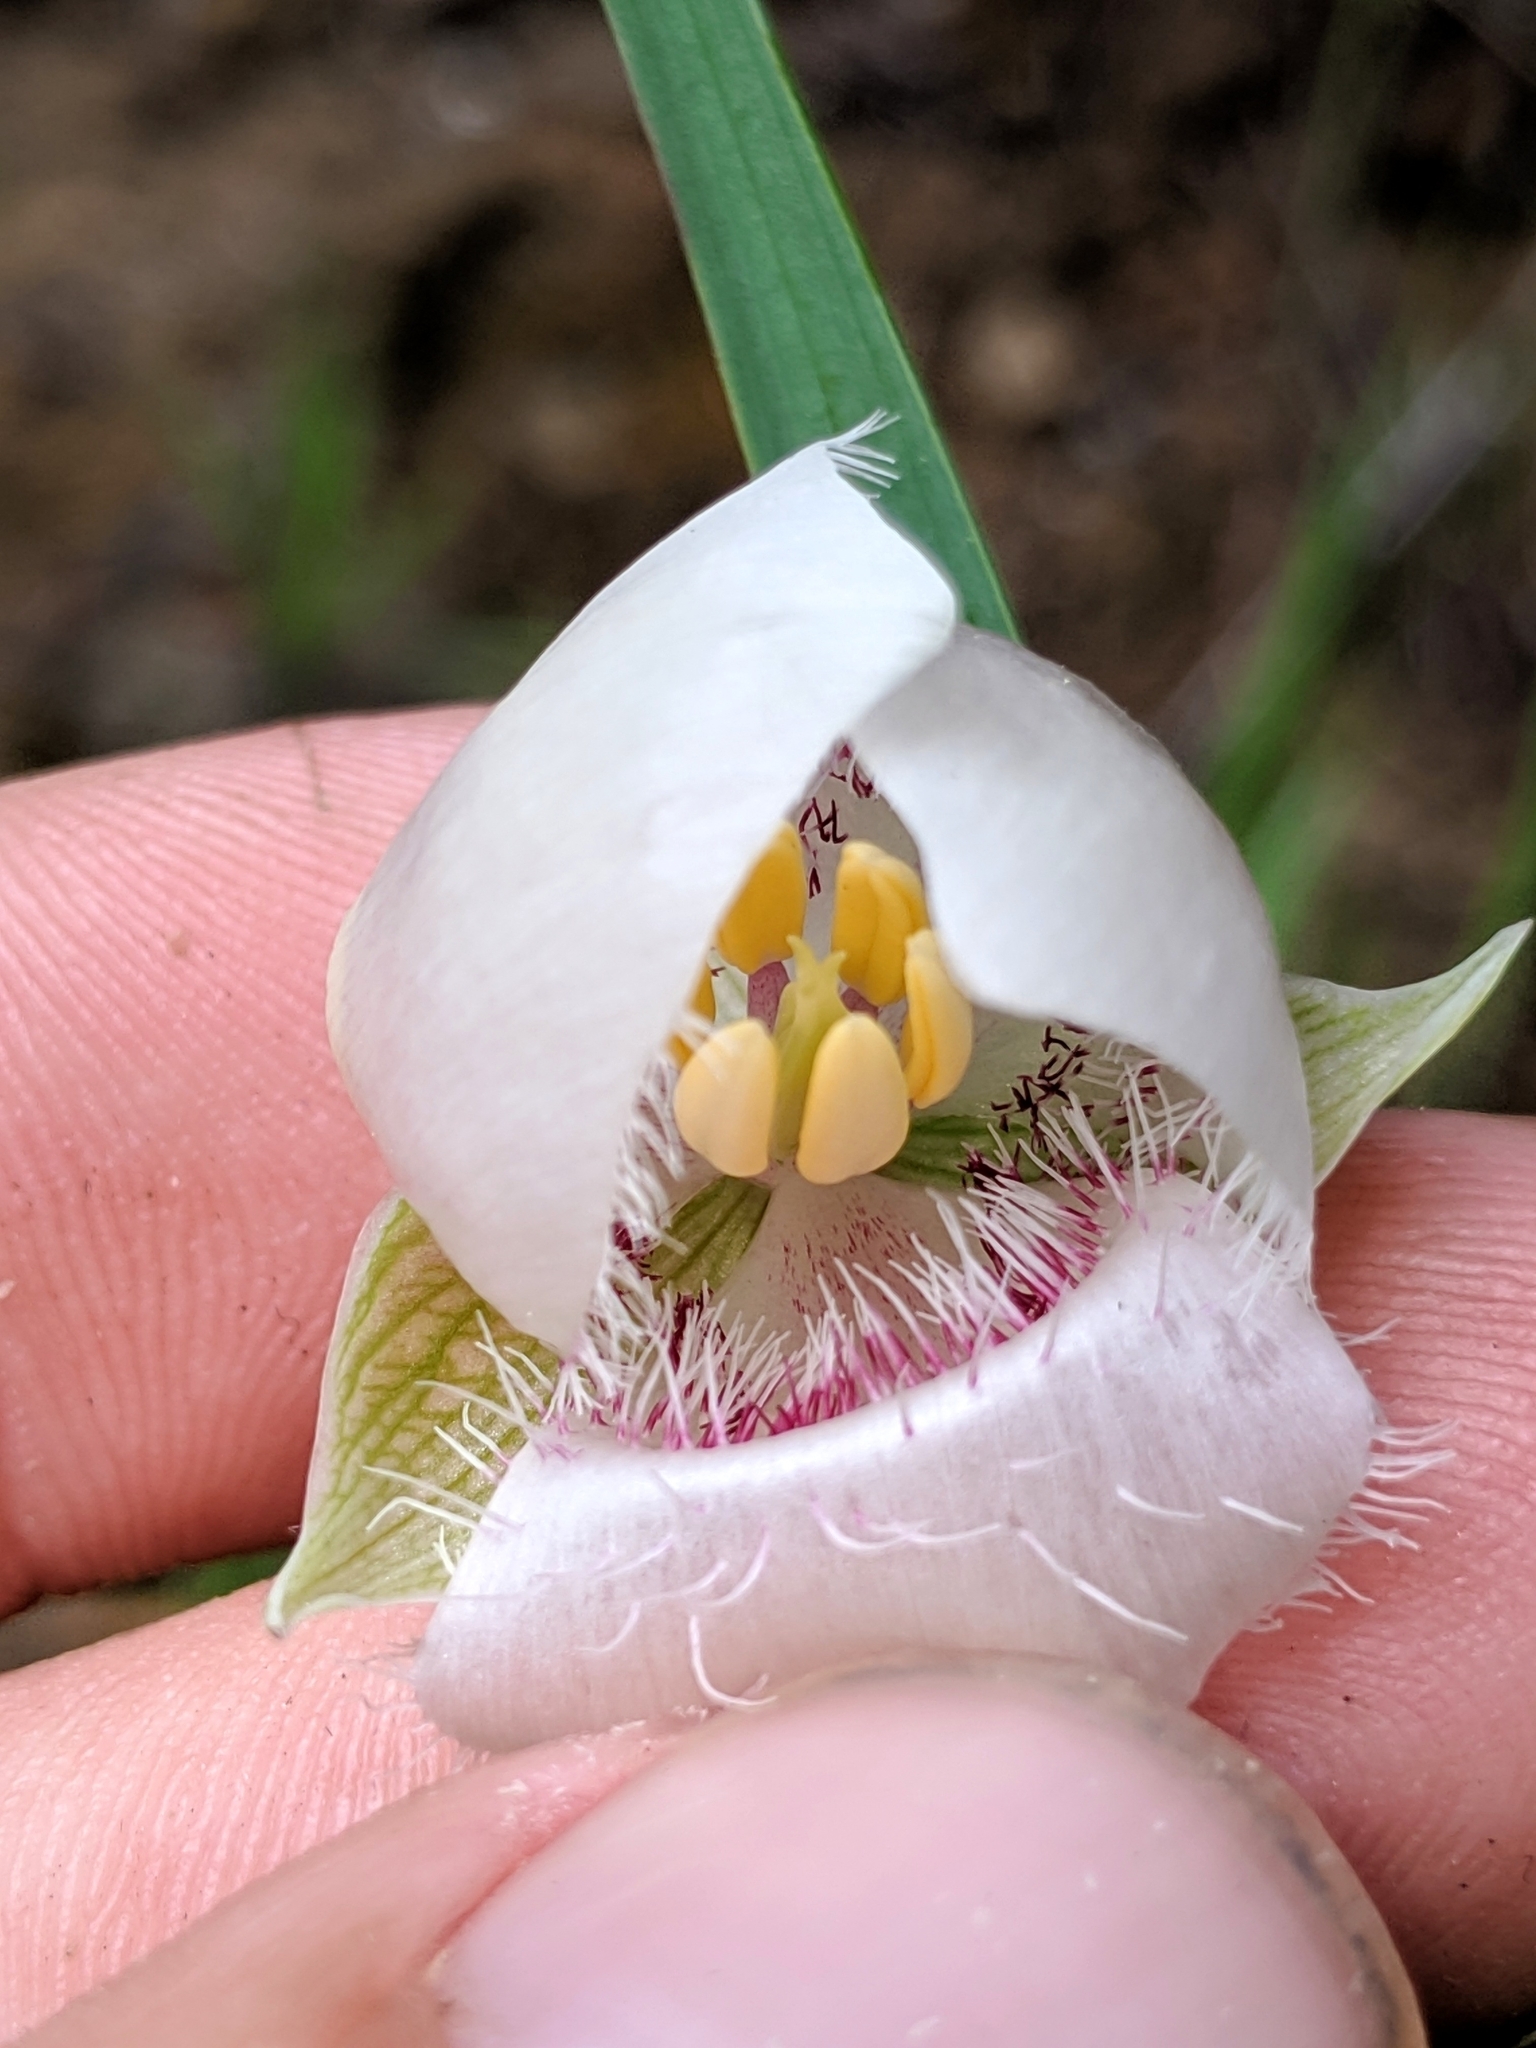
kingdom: Plantae
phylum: Tracheophyta
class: Liliopsida
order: Liliales
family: Liliaceae
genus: Calochortus
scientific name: Calochortus albus
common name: Fairy-lantern
